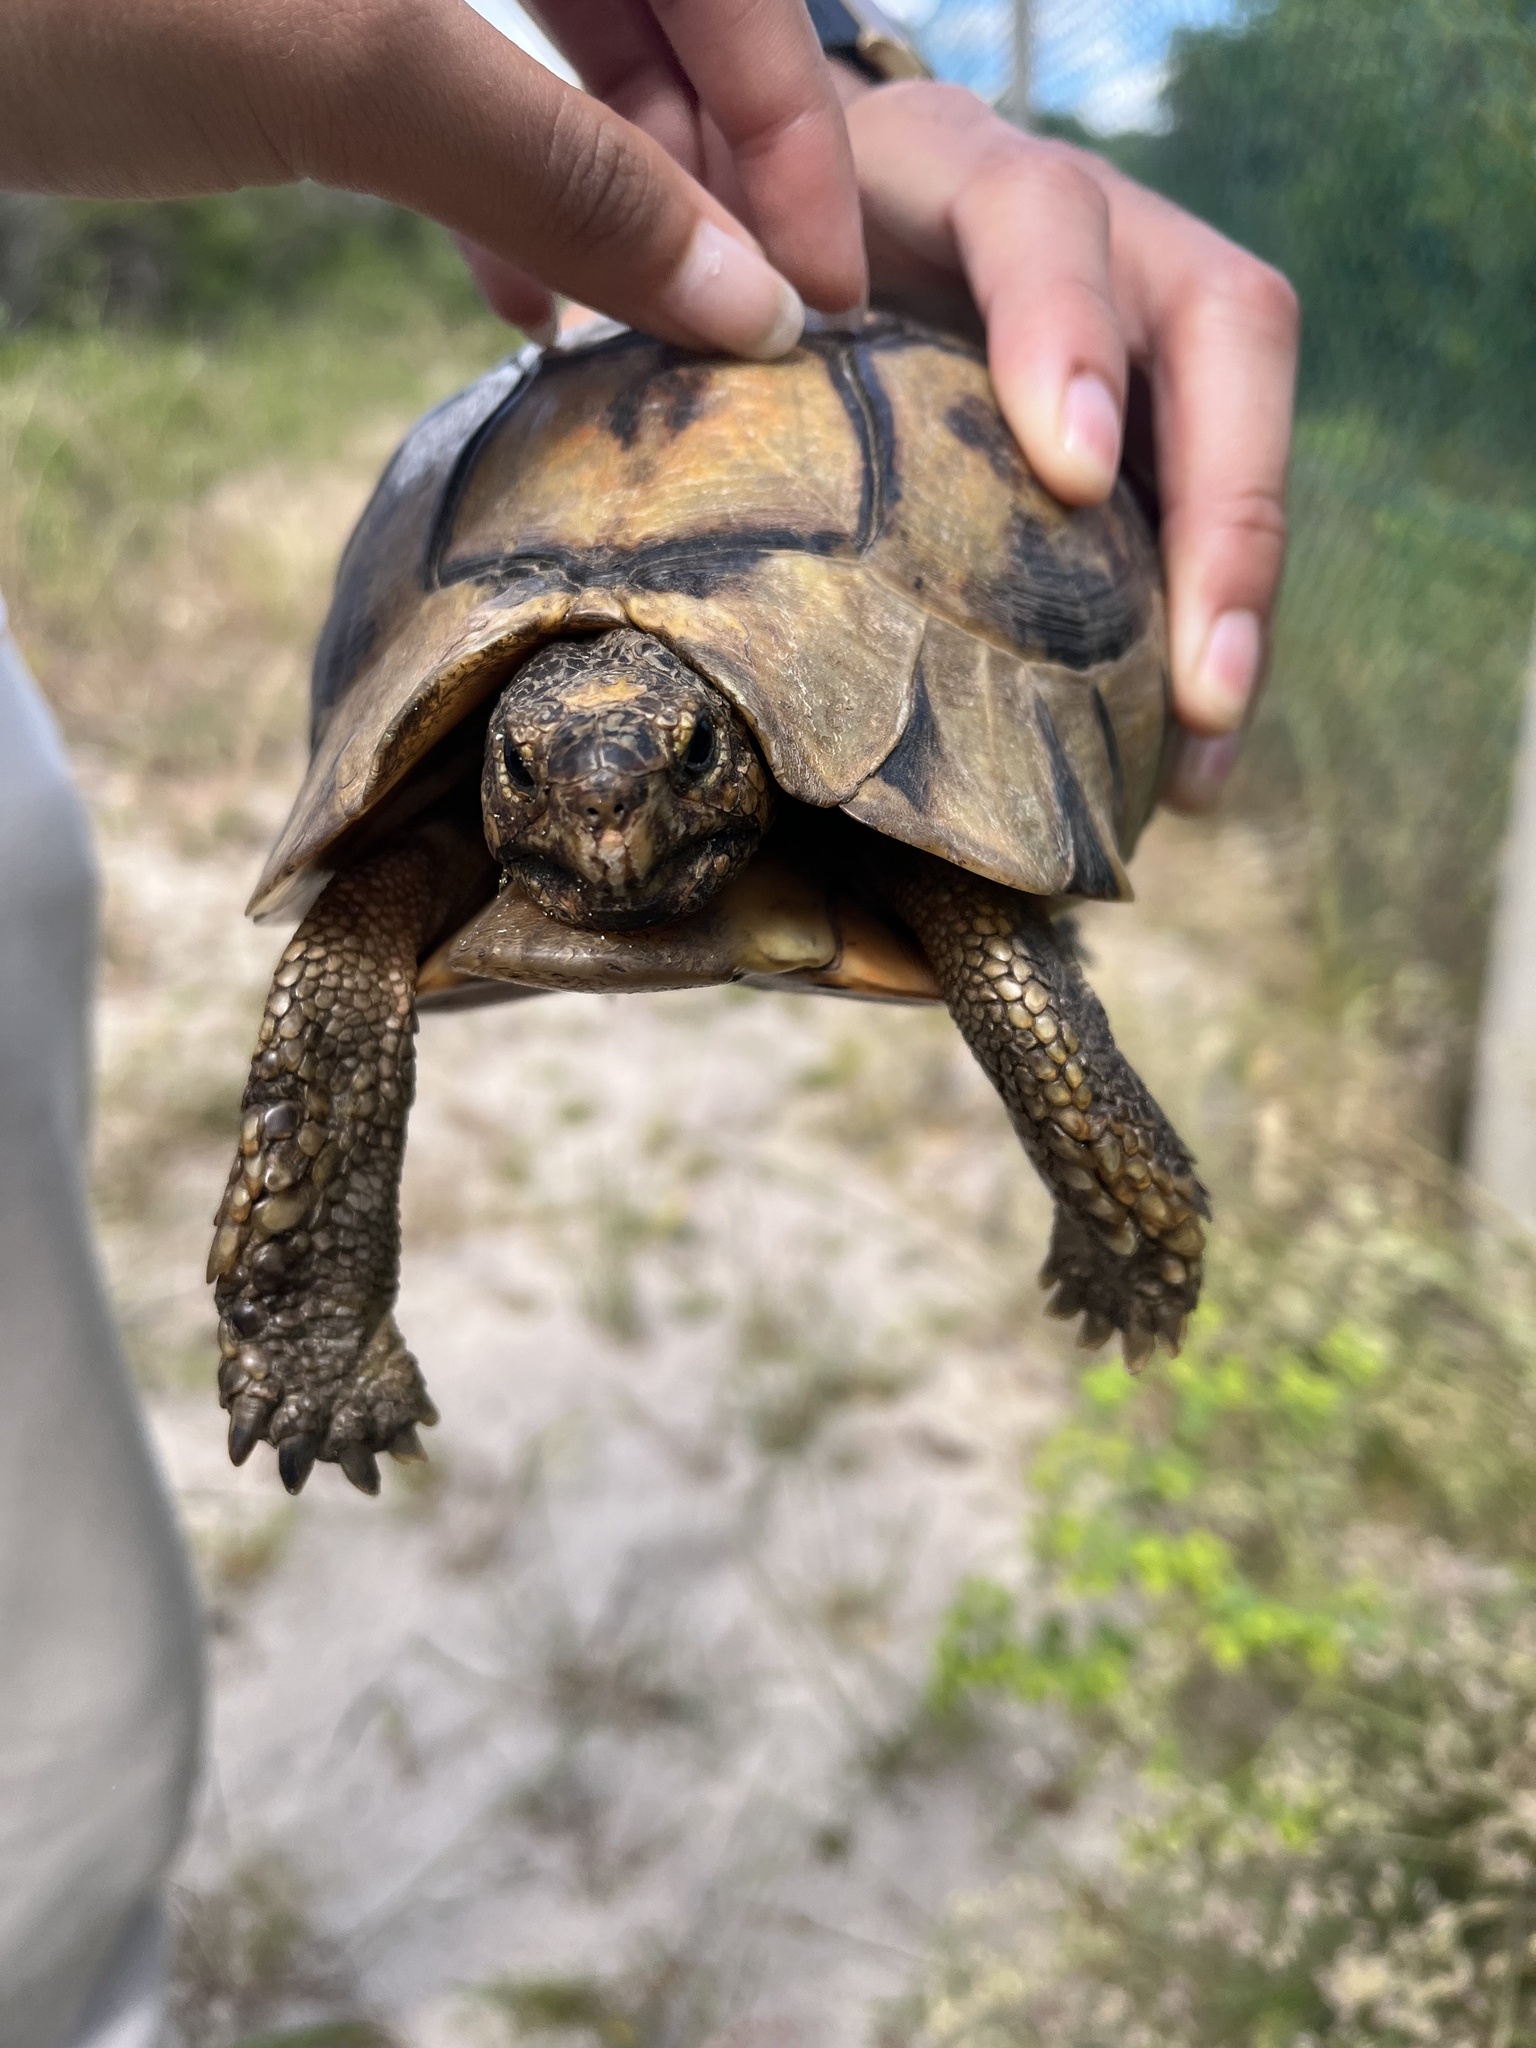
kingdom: Animalia
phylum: Chordata
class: Testudines
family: Testudinidae
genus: Chersina
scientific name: Chersina angulata
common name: South african bowsprit tortoise
